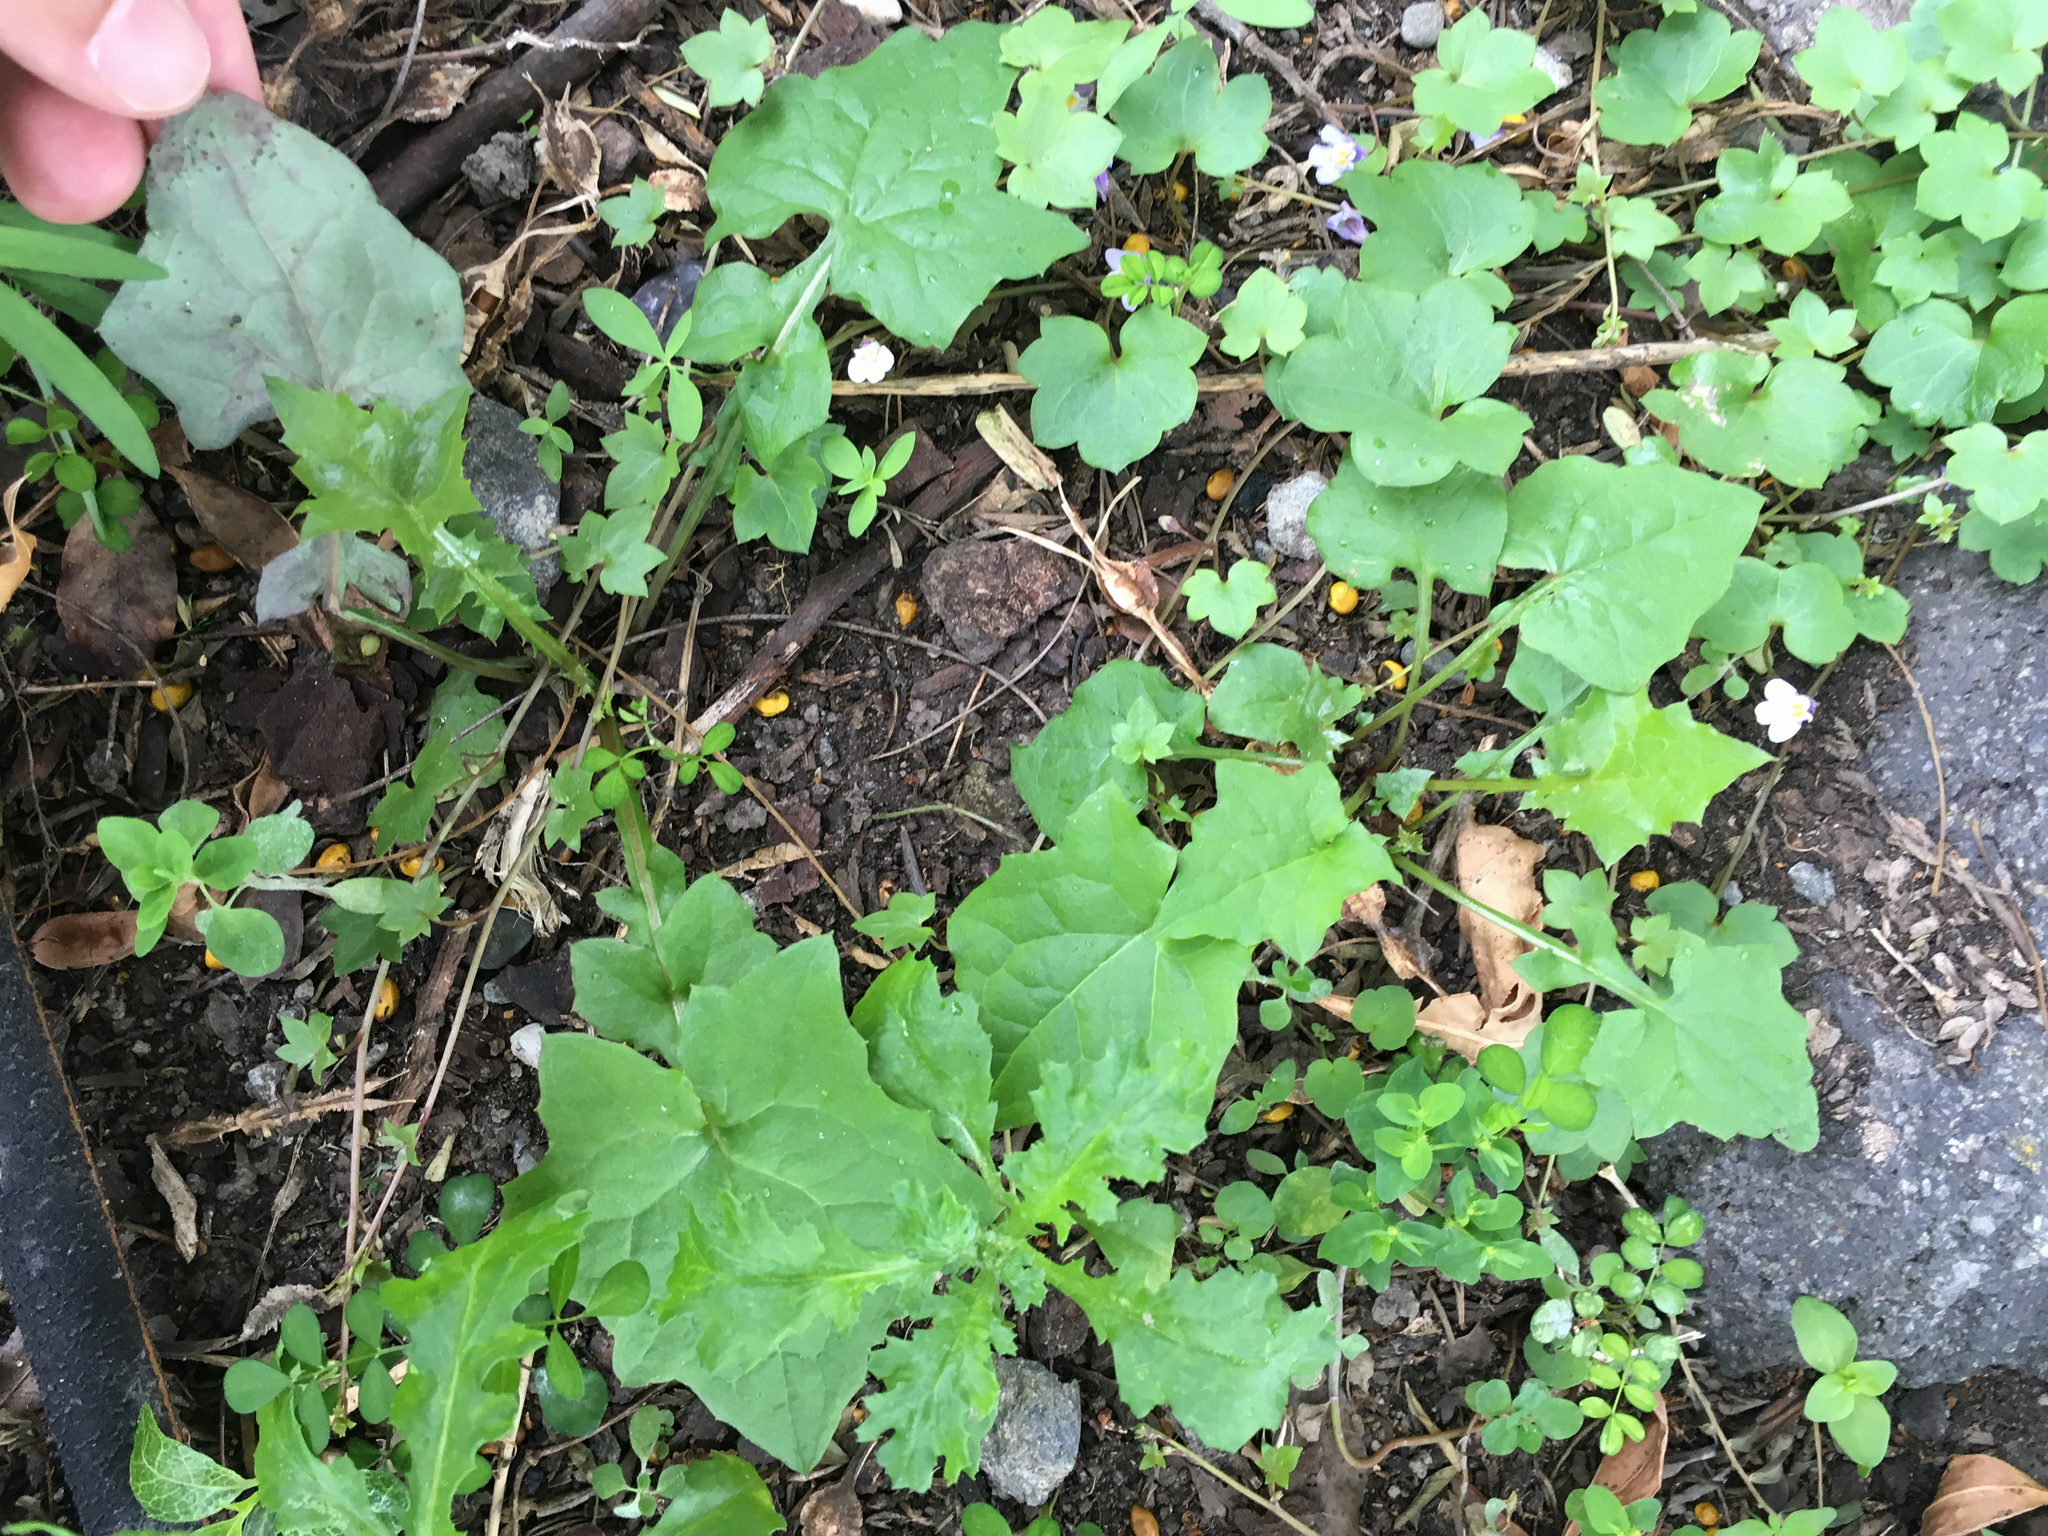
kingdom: Plantae
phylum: Tracheophyta
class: Magnoliopsida
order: Asterales
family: Asteraceae
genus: Mycelis
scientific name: Mycelis muralis
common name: Wall lettuce
